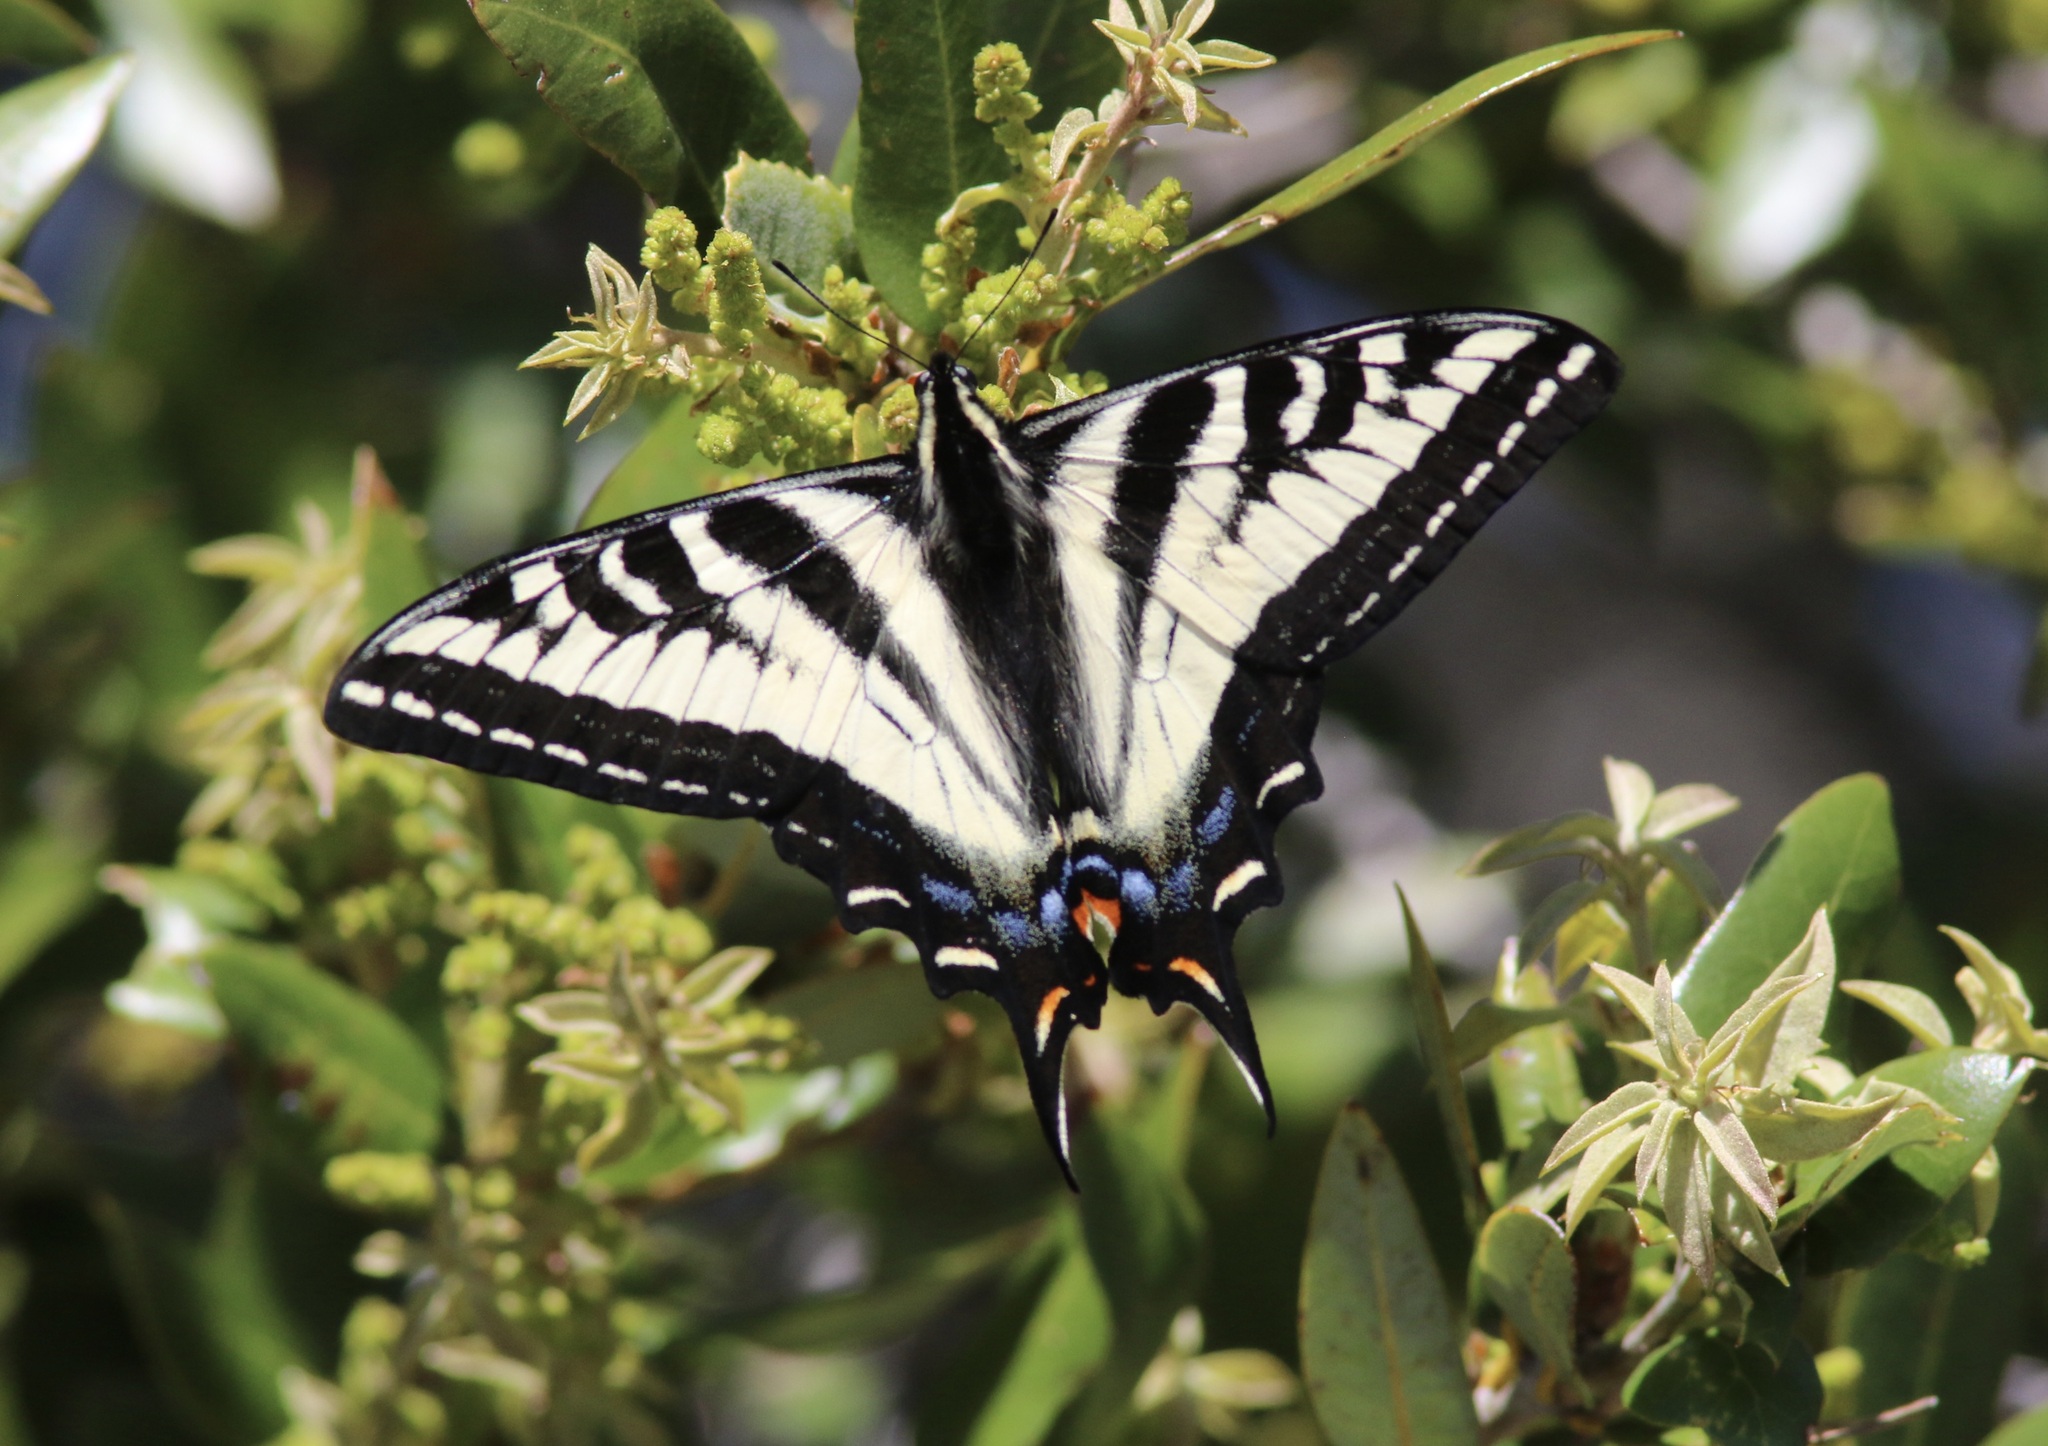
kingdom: Animalia
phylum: Arthropoda
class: Insecta
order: Lepidoptera
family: Papilionidae
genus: Papilio
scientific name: Papilio eurymedon
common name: Pale tiger swallowtail
